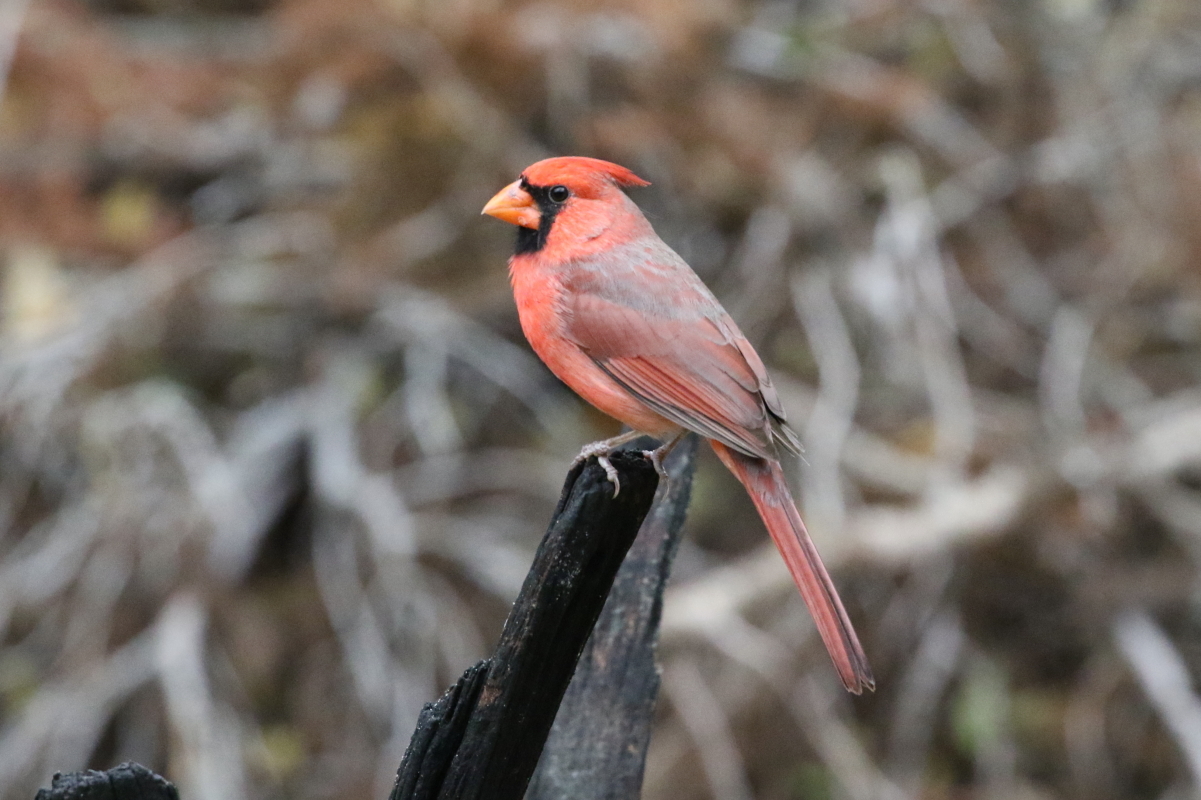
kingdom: Animalia
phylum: Chordata
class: Aves
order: Passeriformes
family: Cardinalidae
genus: Cardinalis
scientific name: Cardinalis cardinalis
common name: Northern cardinal
